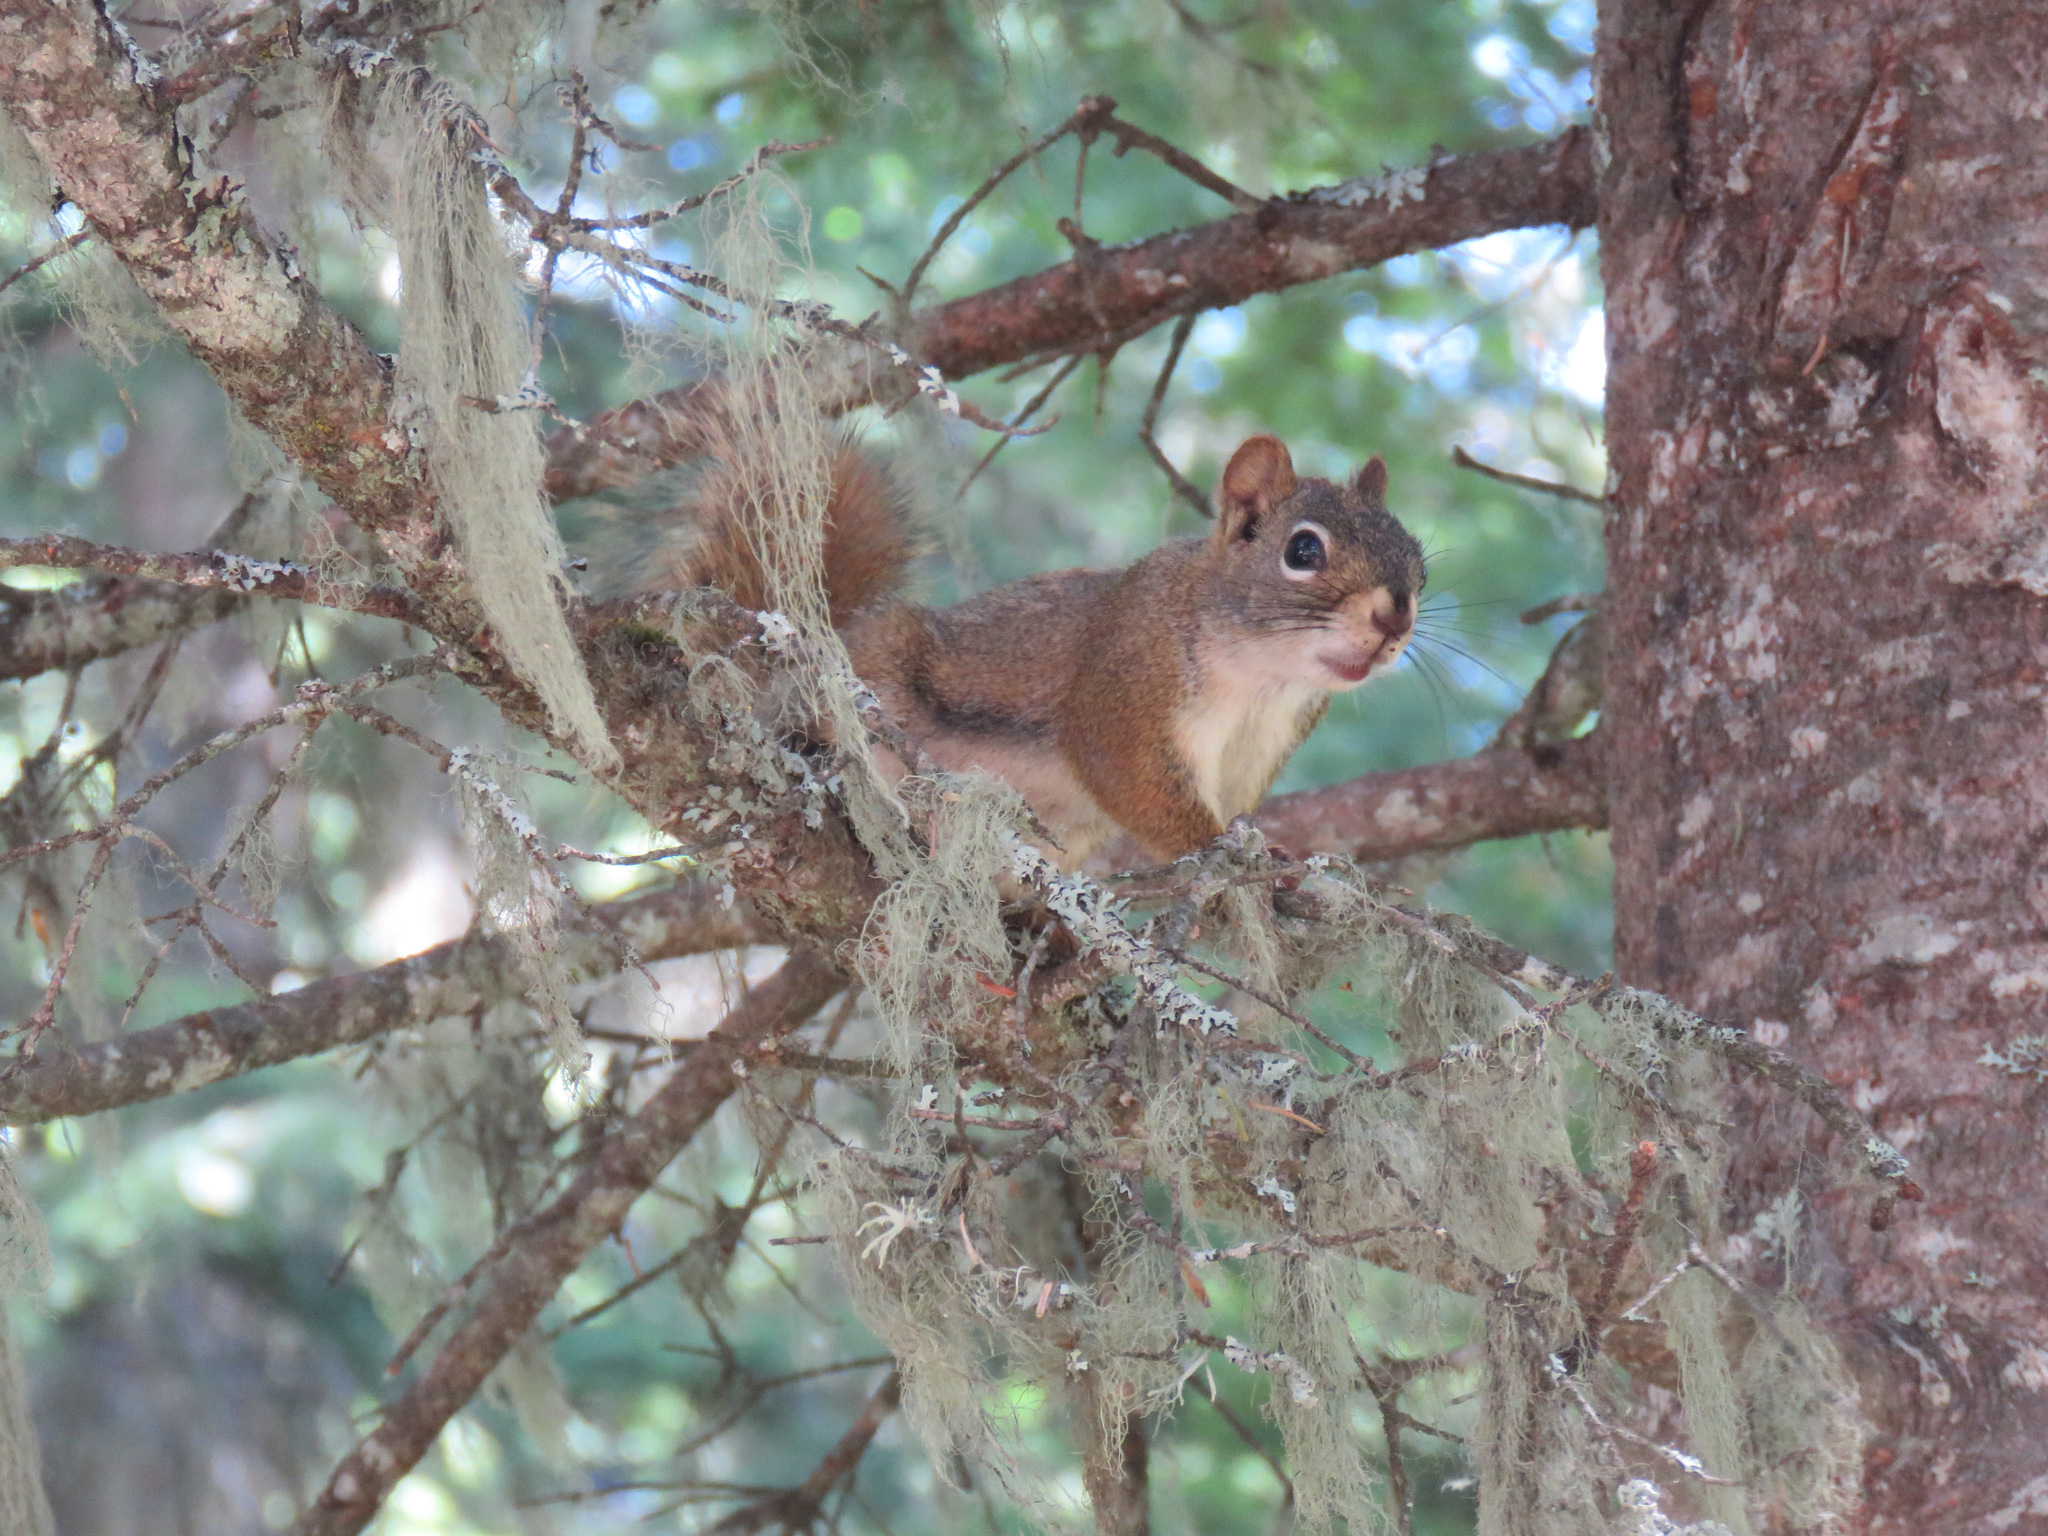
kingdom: Animalia
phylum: Chordata
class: Mammalia
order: Rodentia
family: Sciuridae
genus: Tamiasciurus
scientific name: Tamiasciurus hudsonicus
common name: Red squirrel
